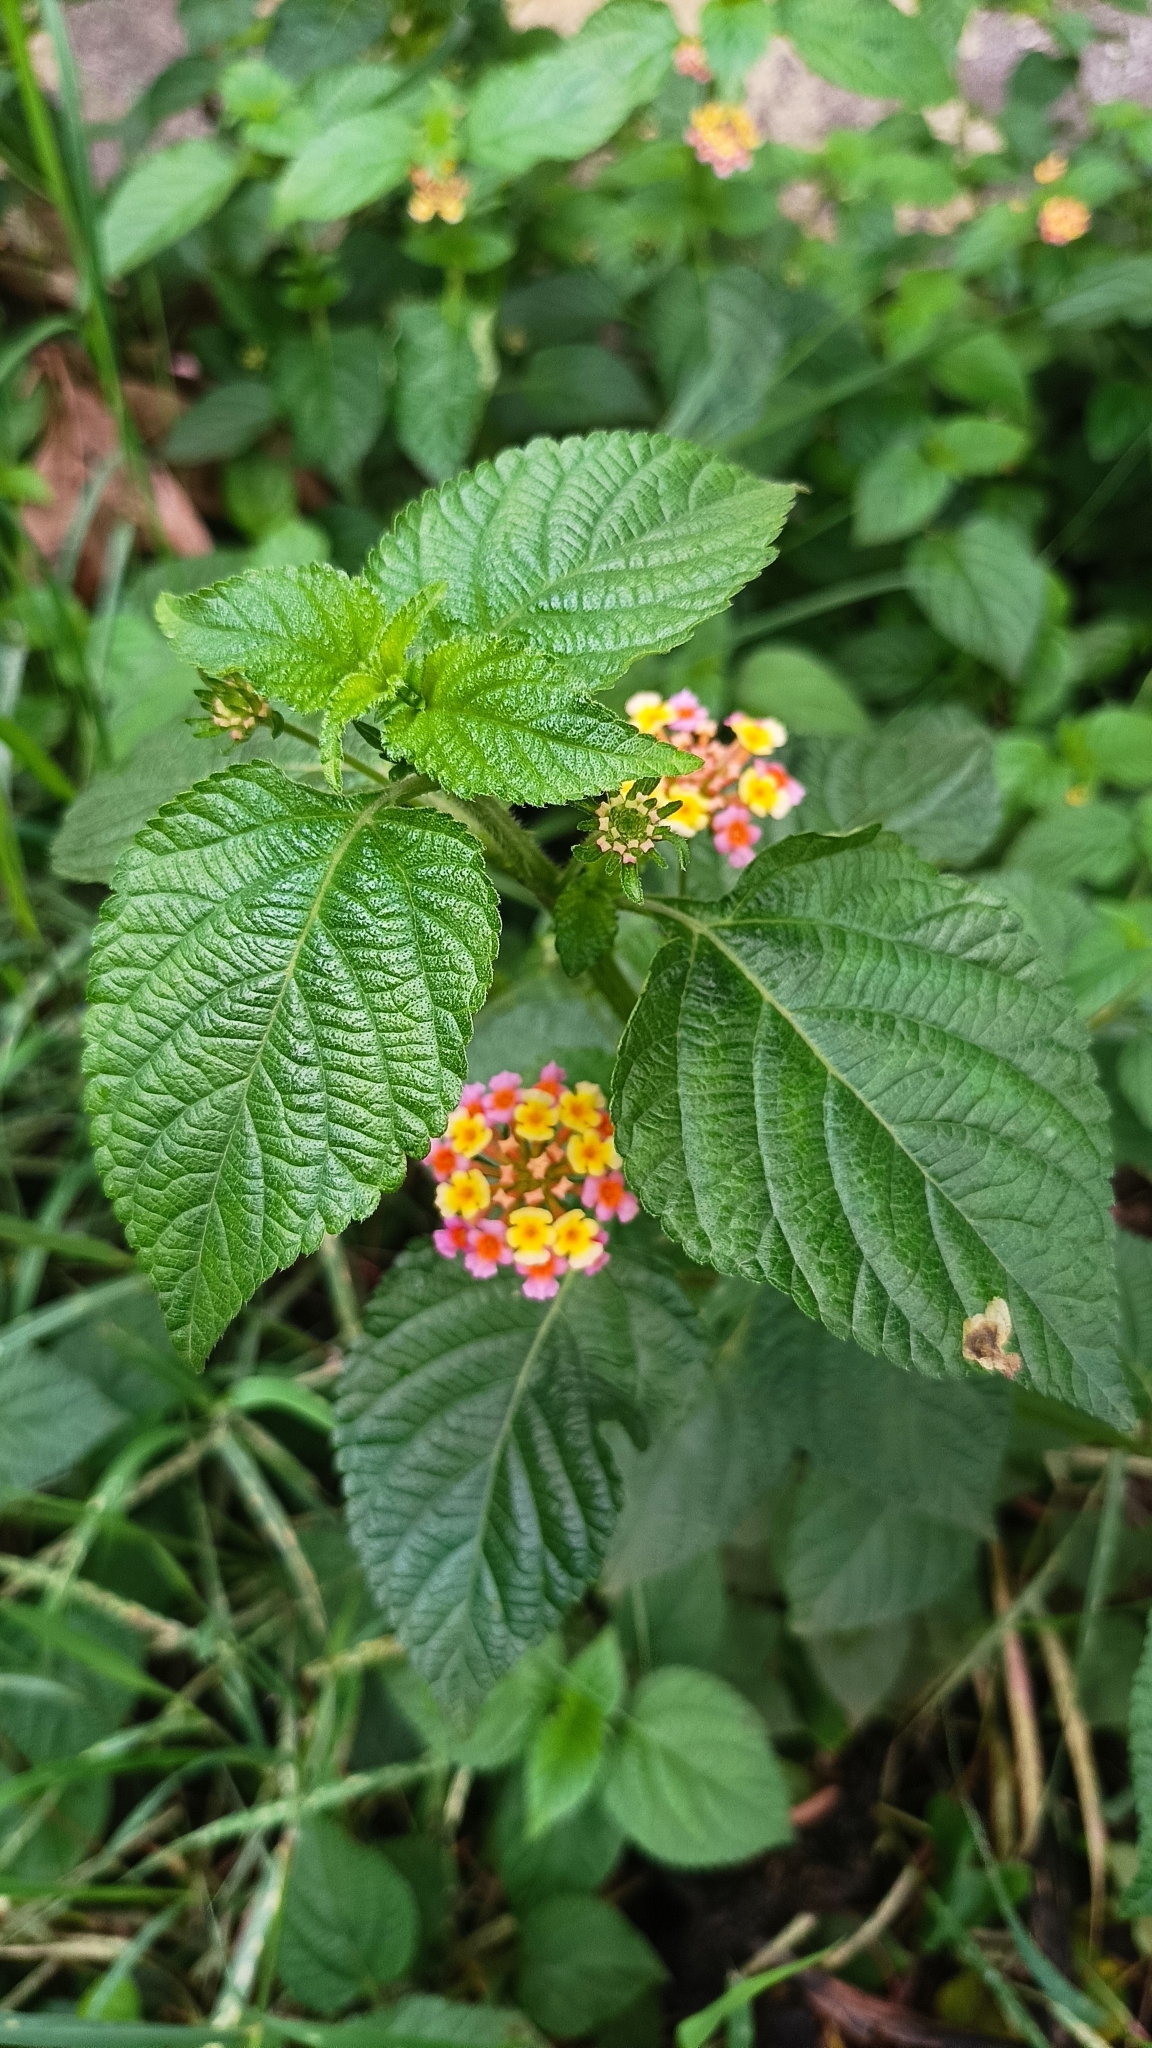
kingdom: Plantae
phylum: Tracheophyta
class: Magnoliopsida
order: Lamiales
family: Verbenaceae
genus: Lantana
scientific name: Lantana camara
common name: Lantana
